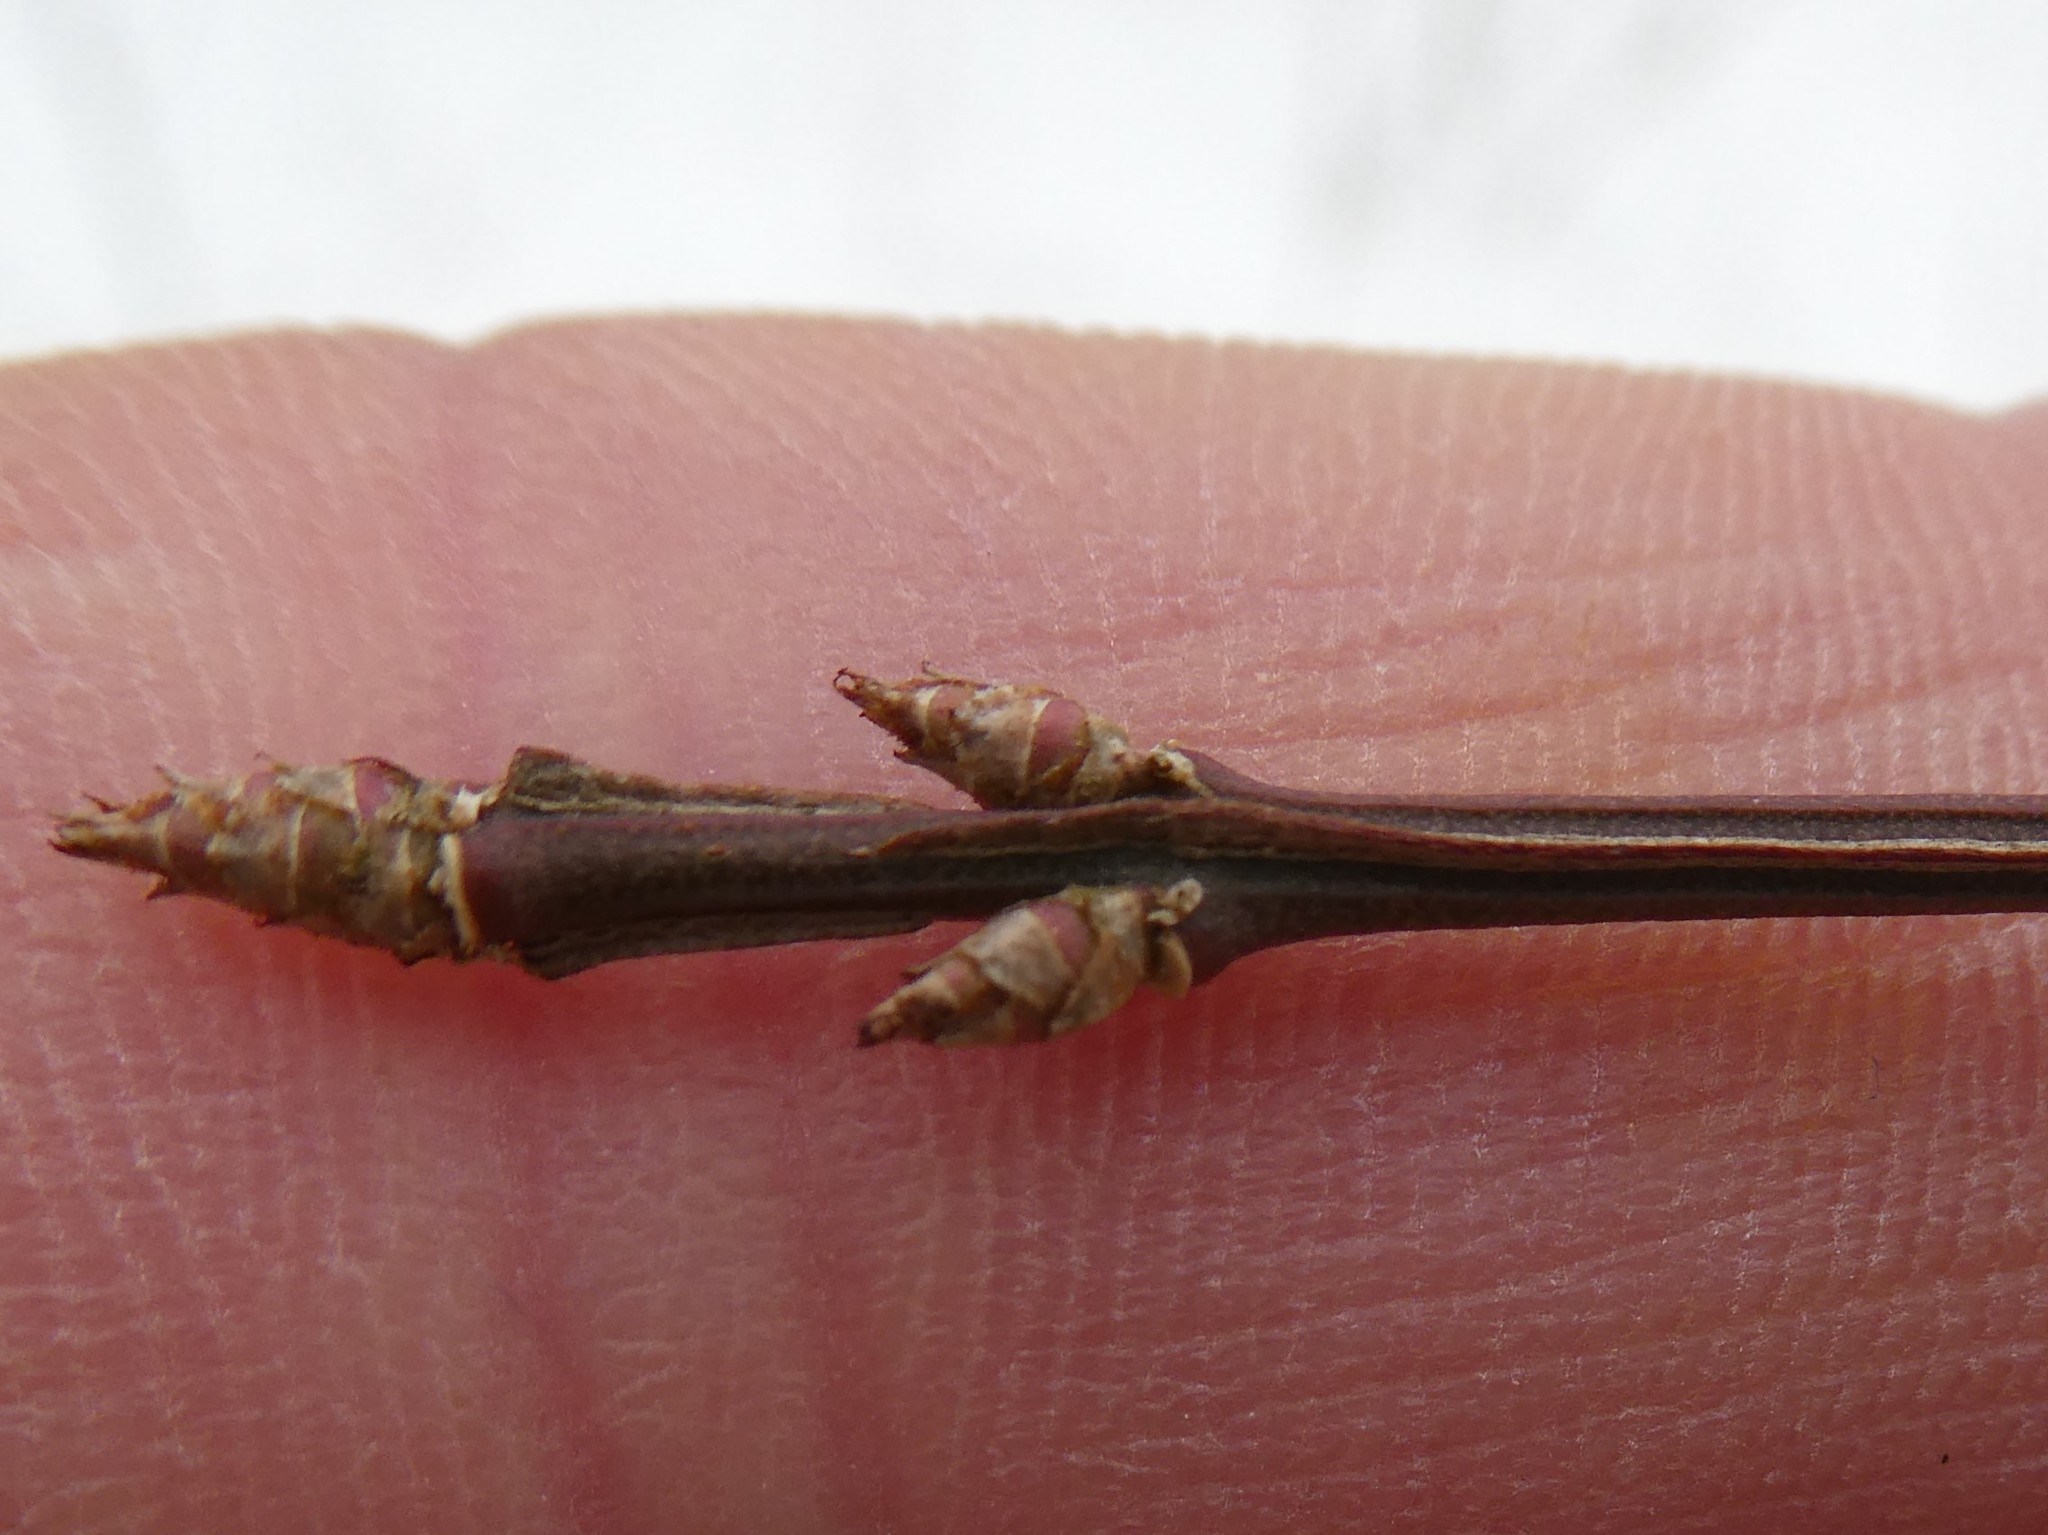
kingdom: Plantae
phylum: Tracheophyta
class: Magnoliopsida
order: Celastrales
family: Celastraceae
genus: Euonymus
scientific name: Euonymus alatus
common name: Winged euonymus
